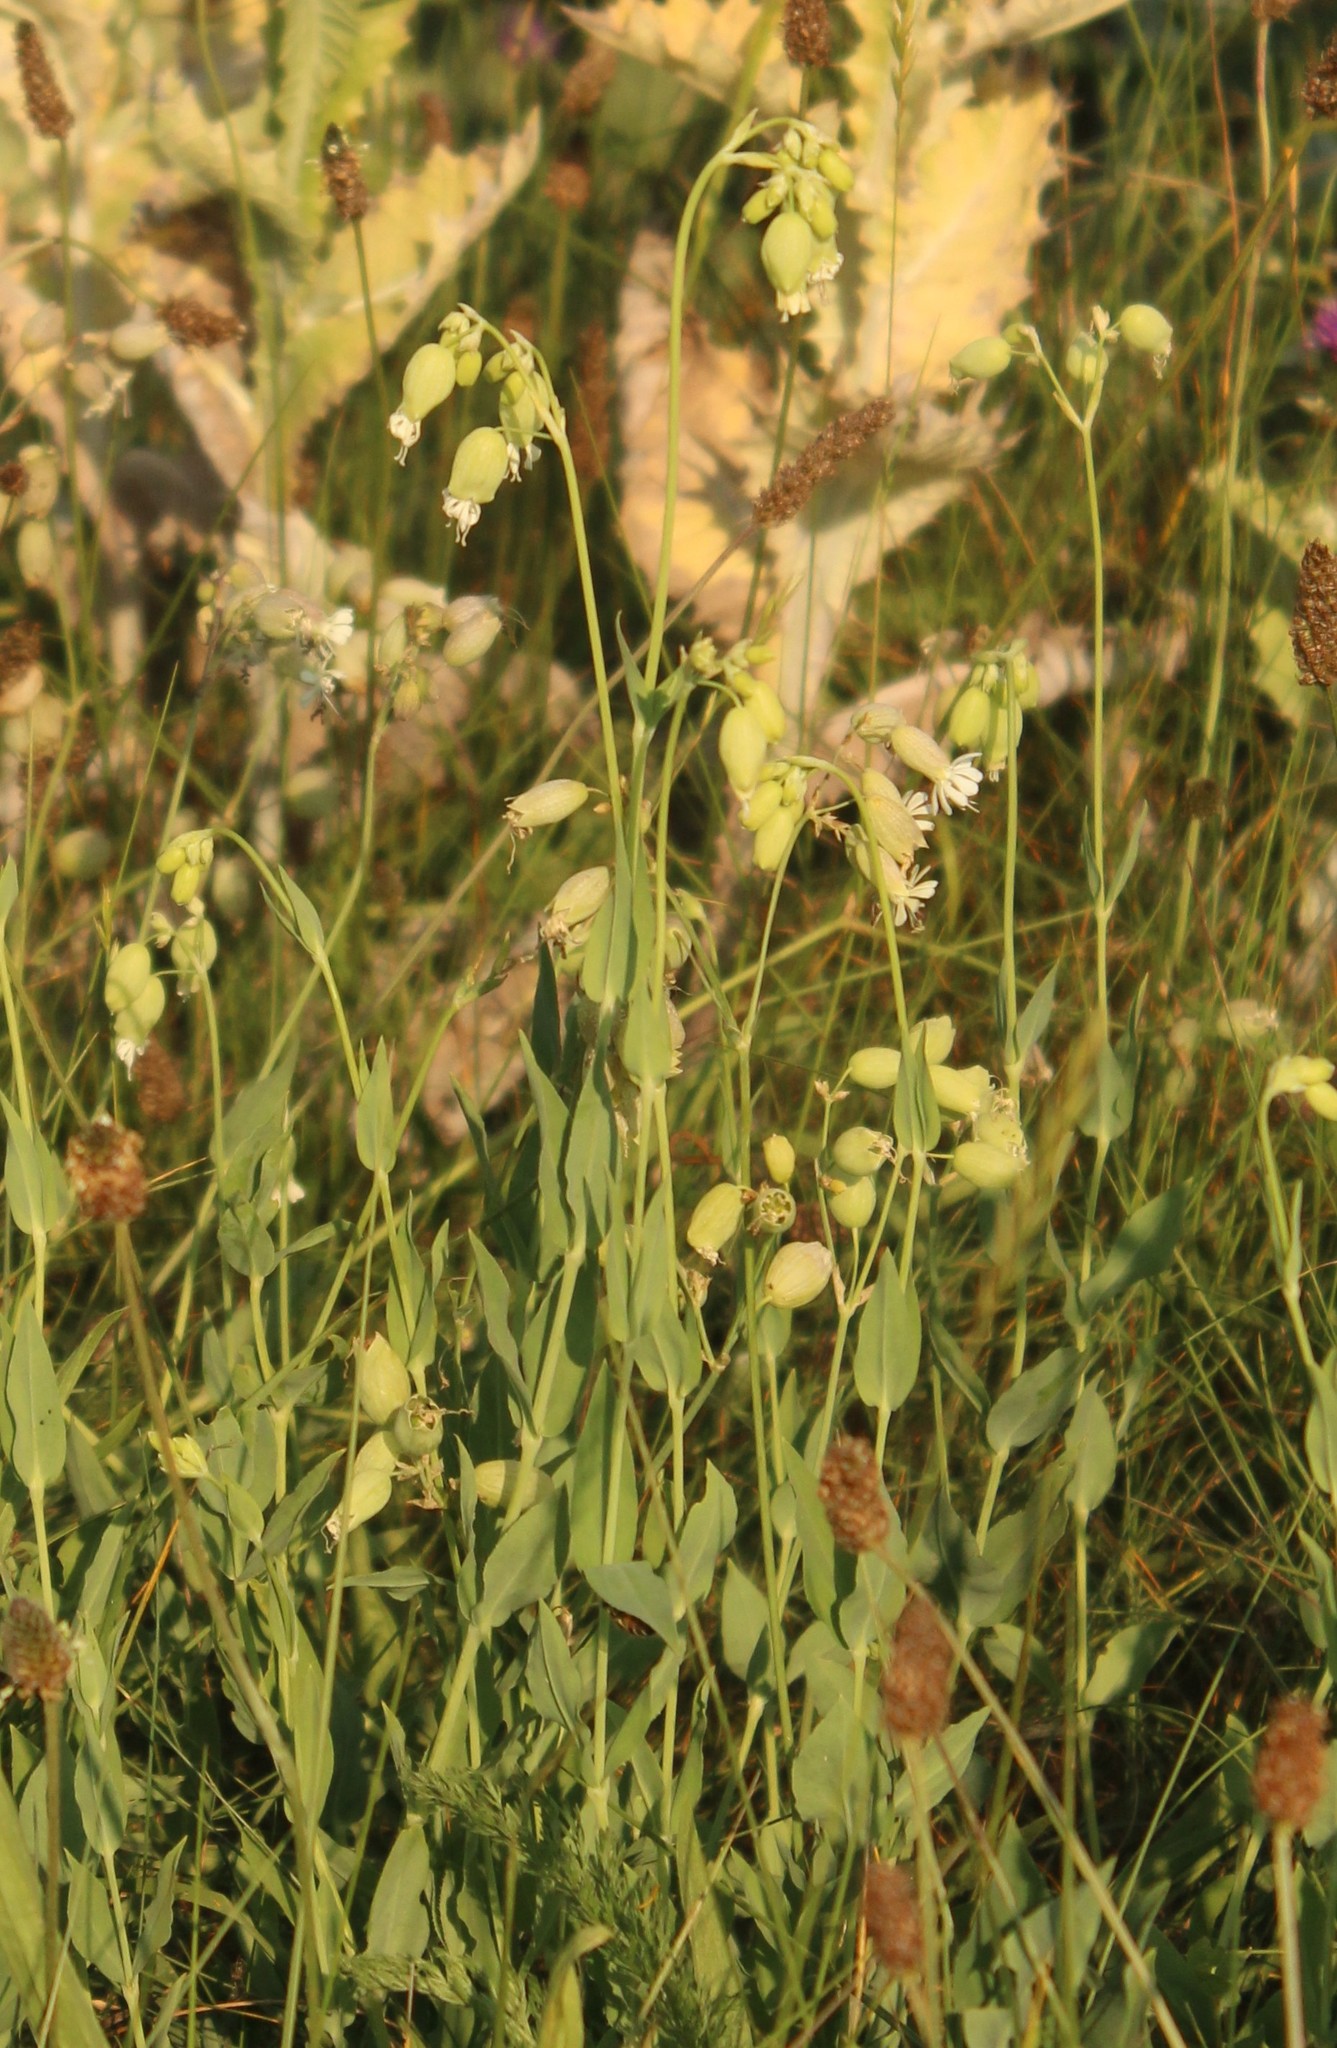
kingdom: Plantae
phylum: Tracheophyta
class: Magnoliopsida
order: Caryophyllales
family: Caryophyllaceae
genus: Silene
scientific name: Silene vulgaris
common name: Bladder campion
